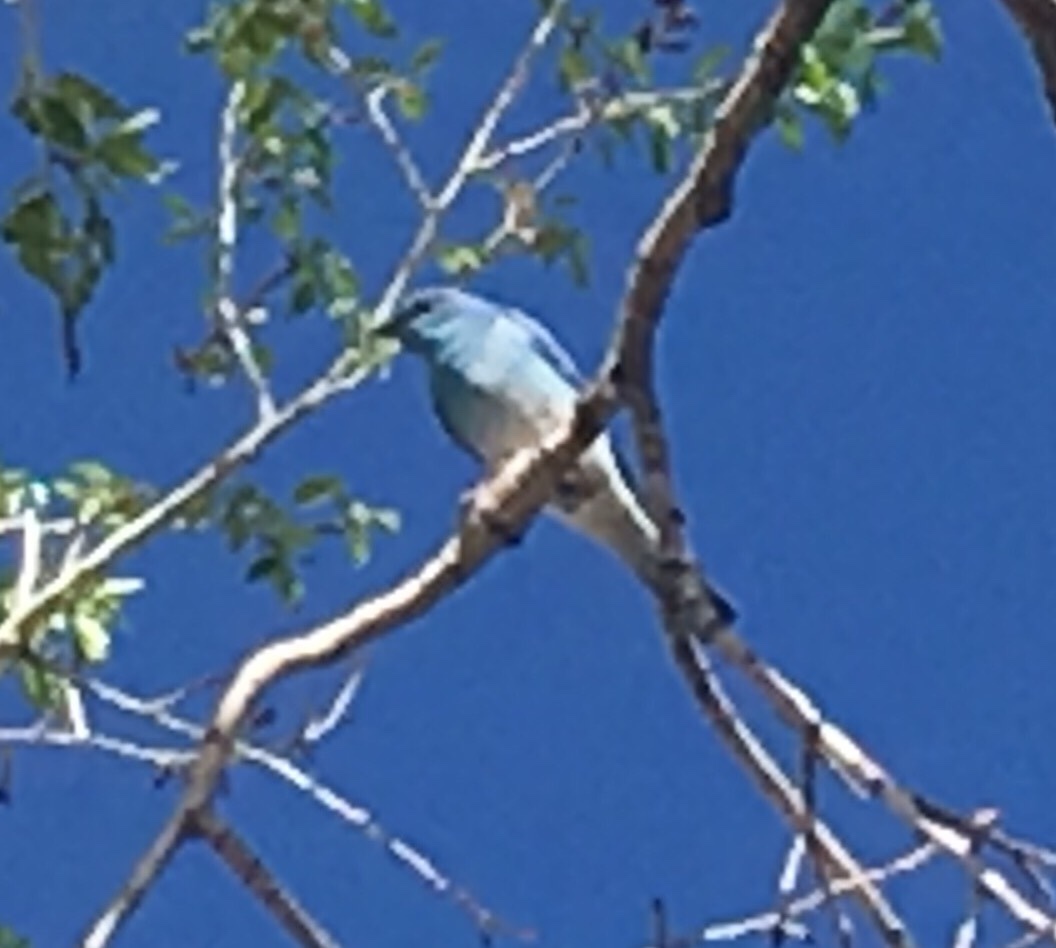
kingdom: Animalia
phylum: Chordata
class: Aves
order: Passeriformes
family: Turdidae
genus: Sialia
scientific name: Sialia currucoides
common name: Mountain bluebird
